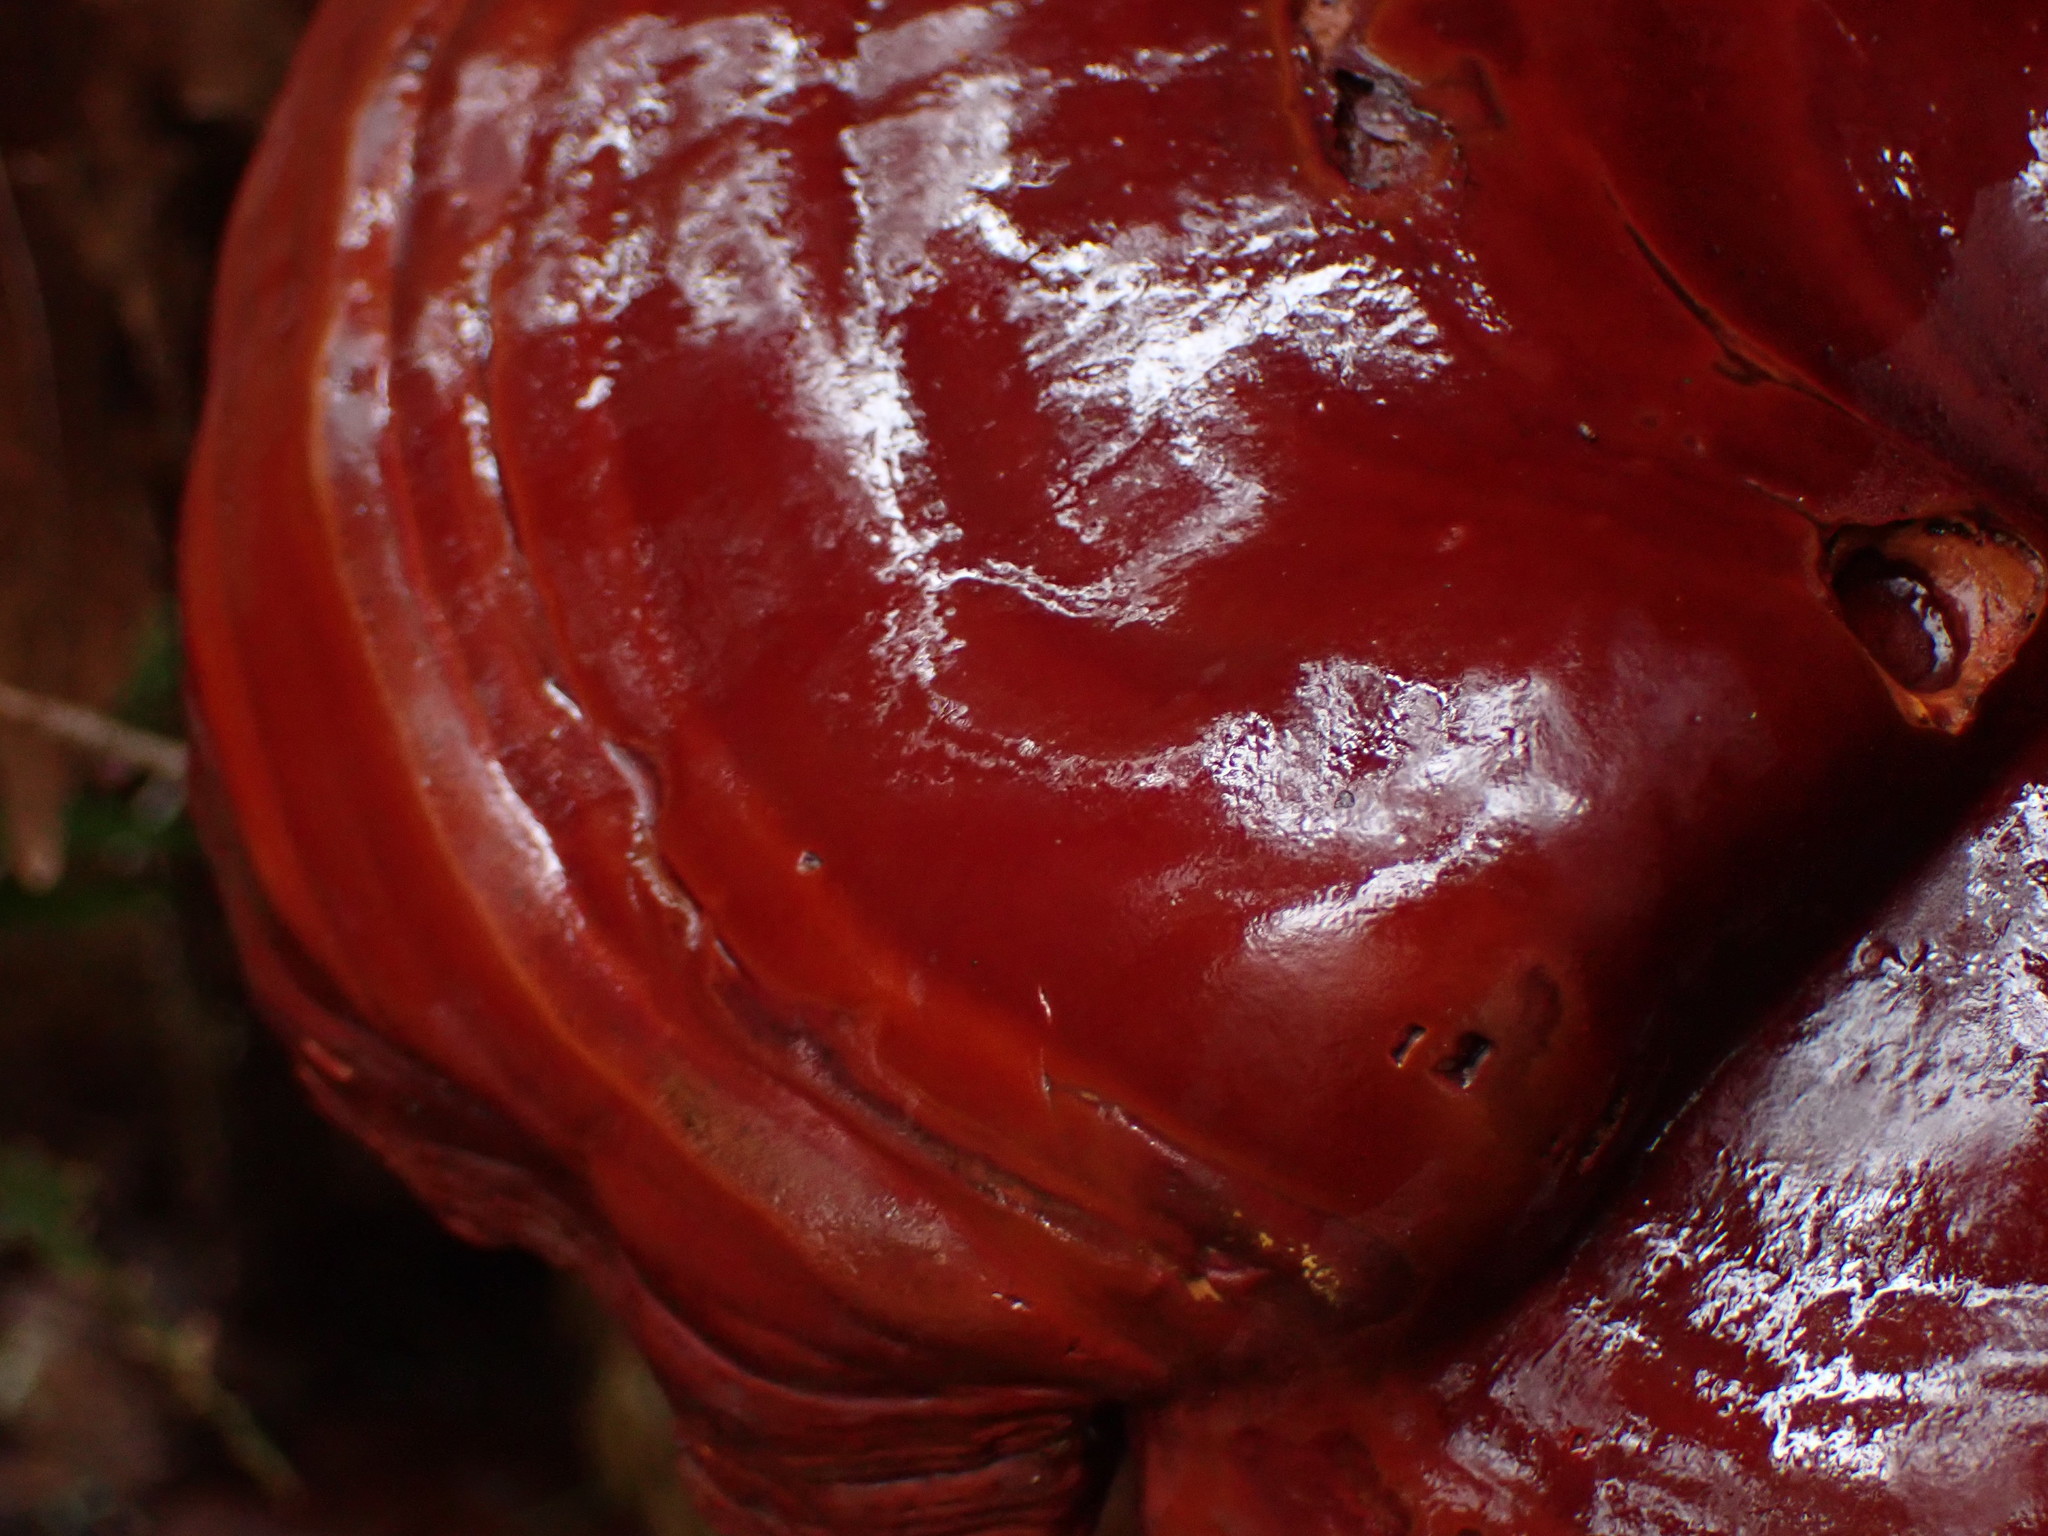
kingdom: Fungi
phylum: Basidiomycota
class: Agaricomycetes
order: Polyporales
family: Polyporaceae
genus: Ganoderma
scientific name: Ganoderma oregonense
